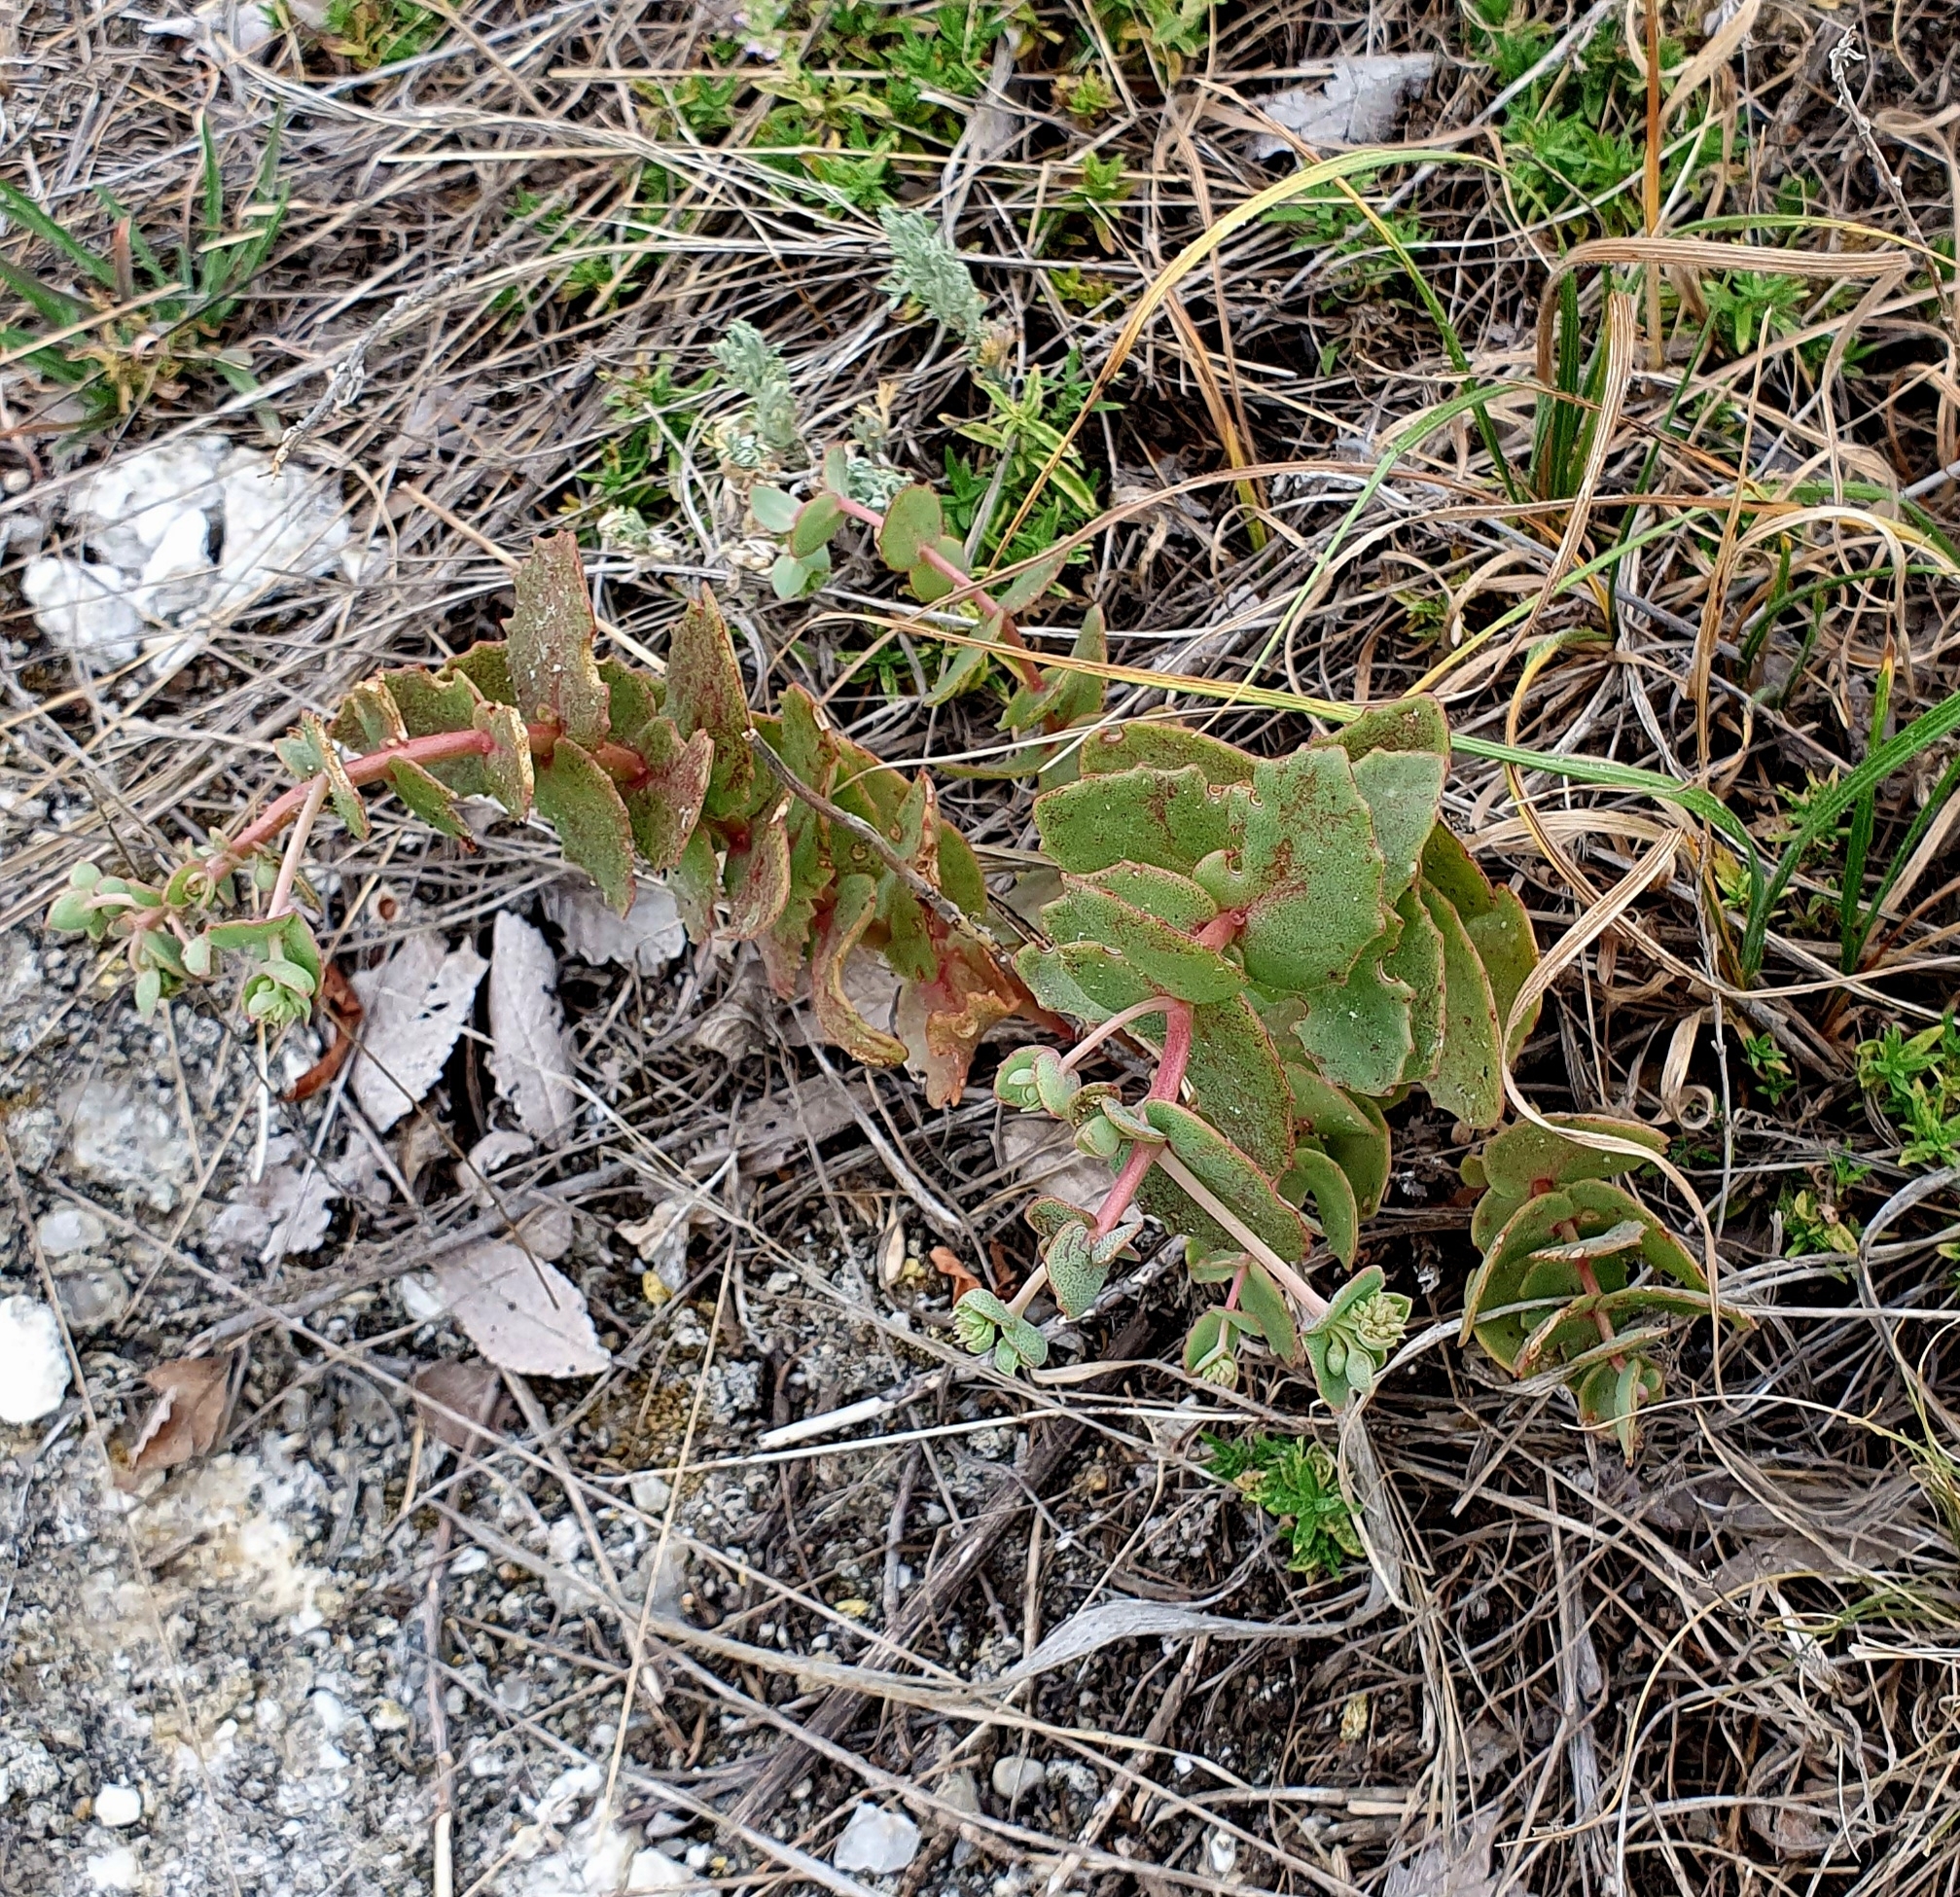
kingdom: Plantae
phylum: Tracheophyta
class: Magnoliopsida
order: Saxifragales
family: Crassulaceae
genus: Hylotelephium
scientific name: Hylotelephium maximum
